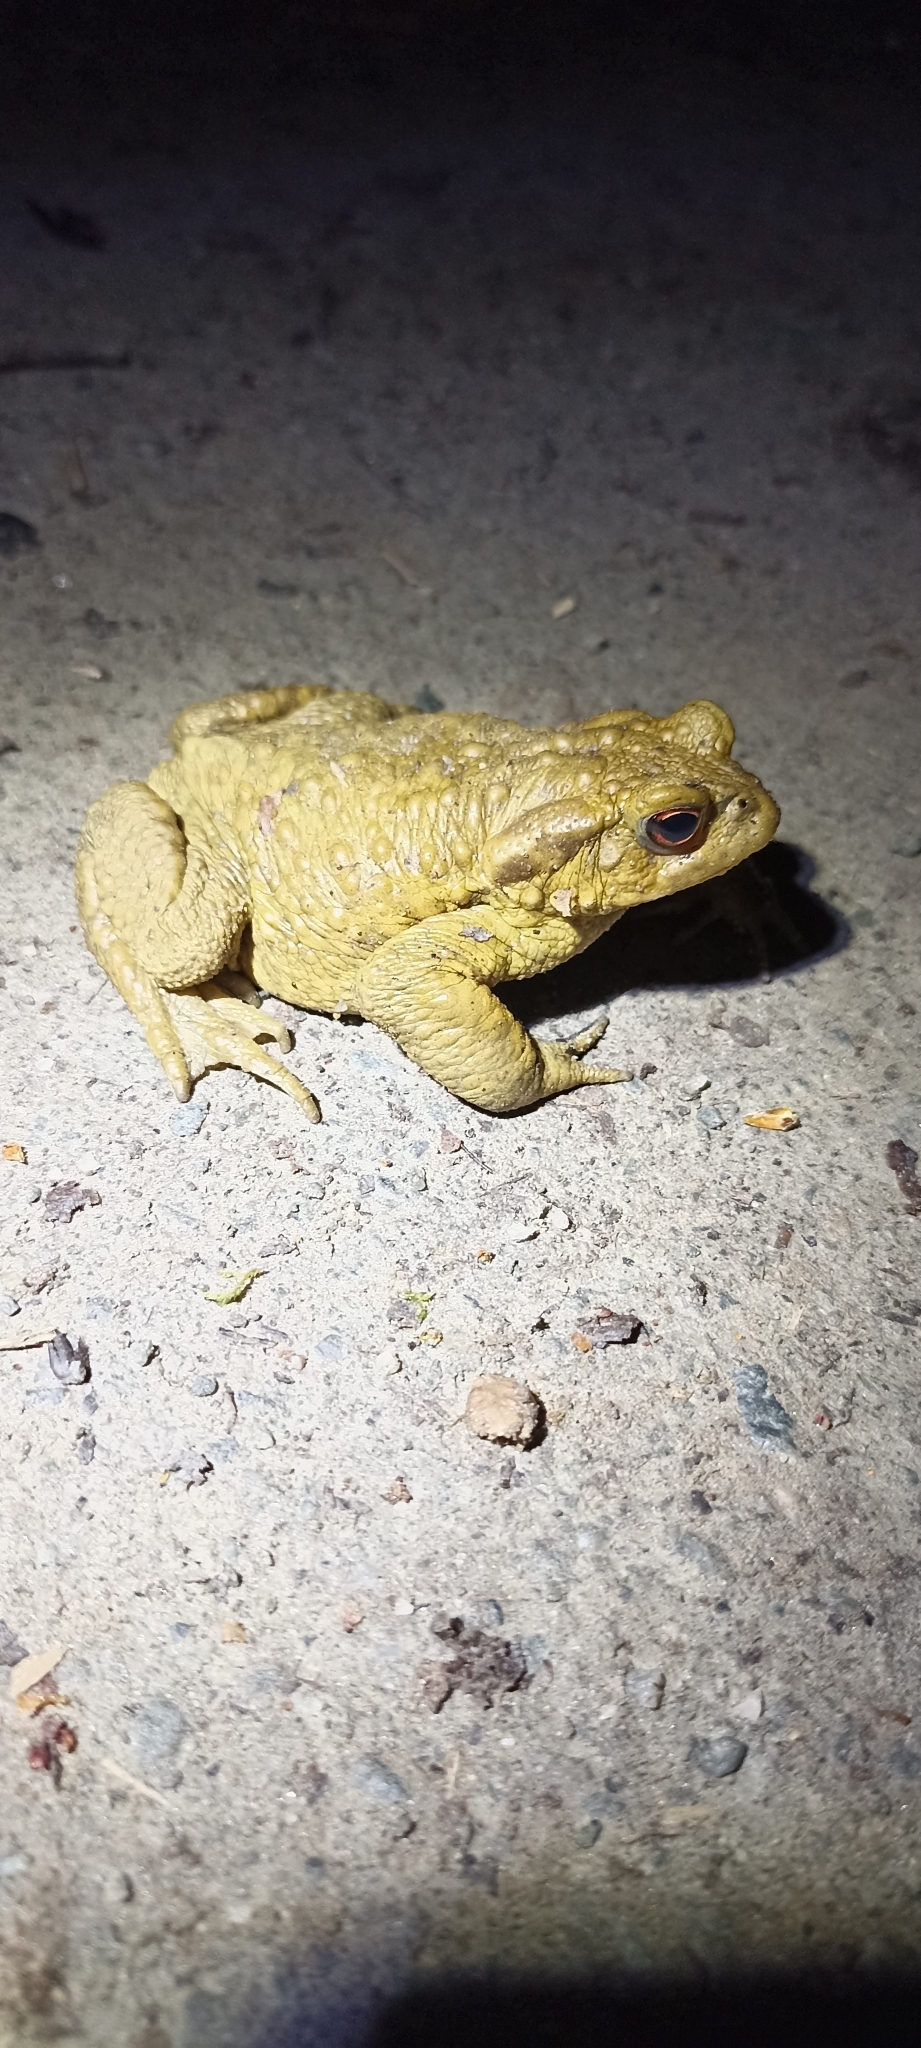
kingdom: Animalia
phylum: Chordata
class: Amphibia
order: Anura
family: Bufonidae
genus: Bufo
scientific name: Bufo spinosus
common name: Western common toad
